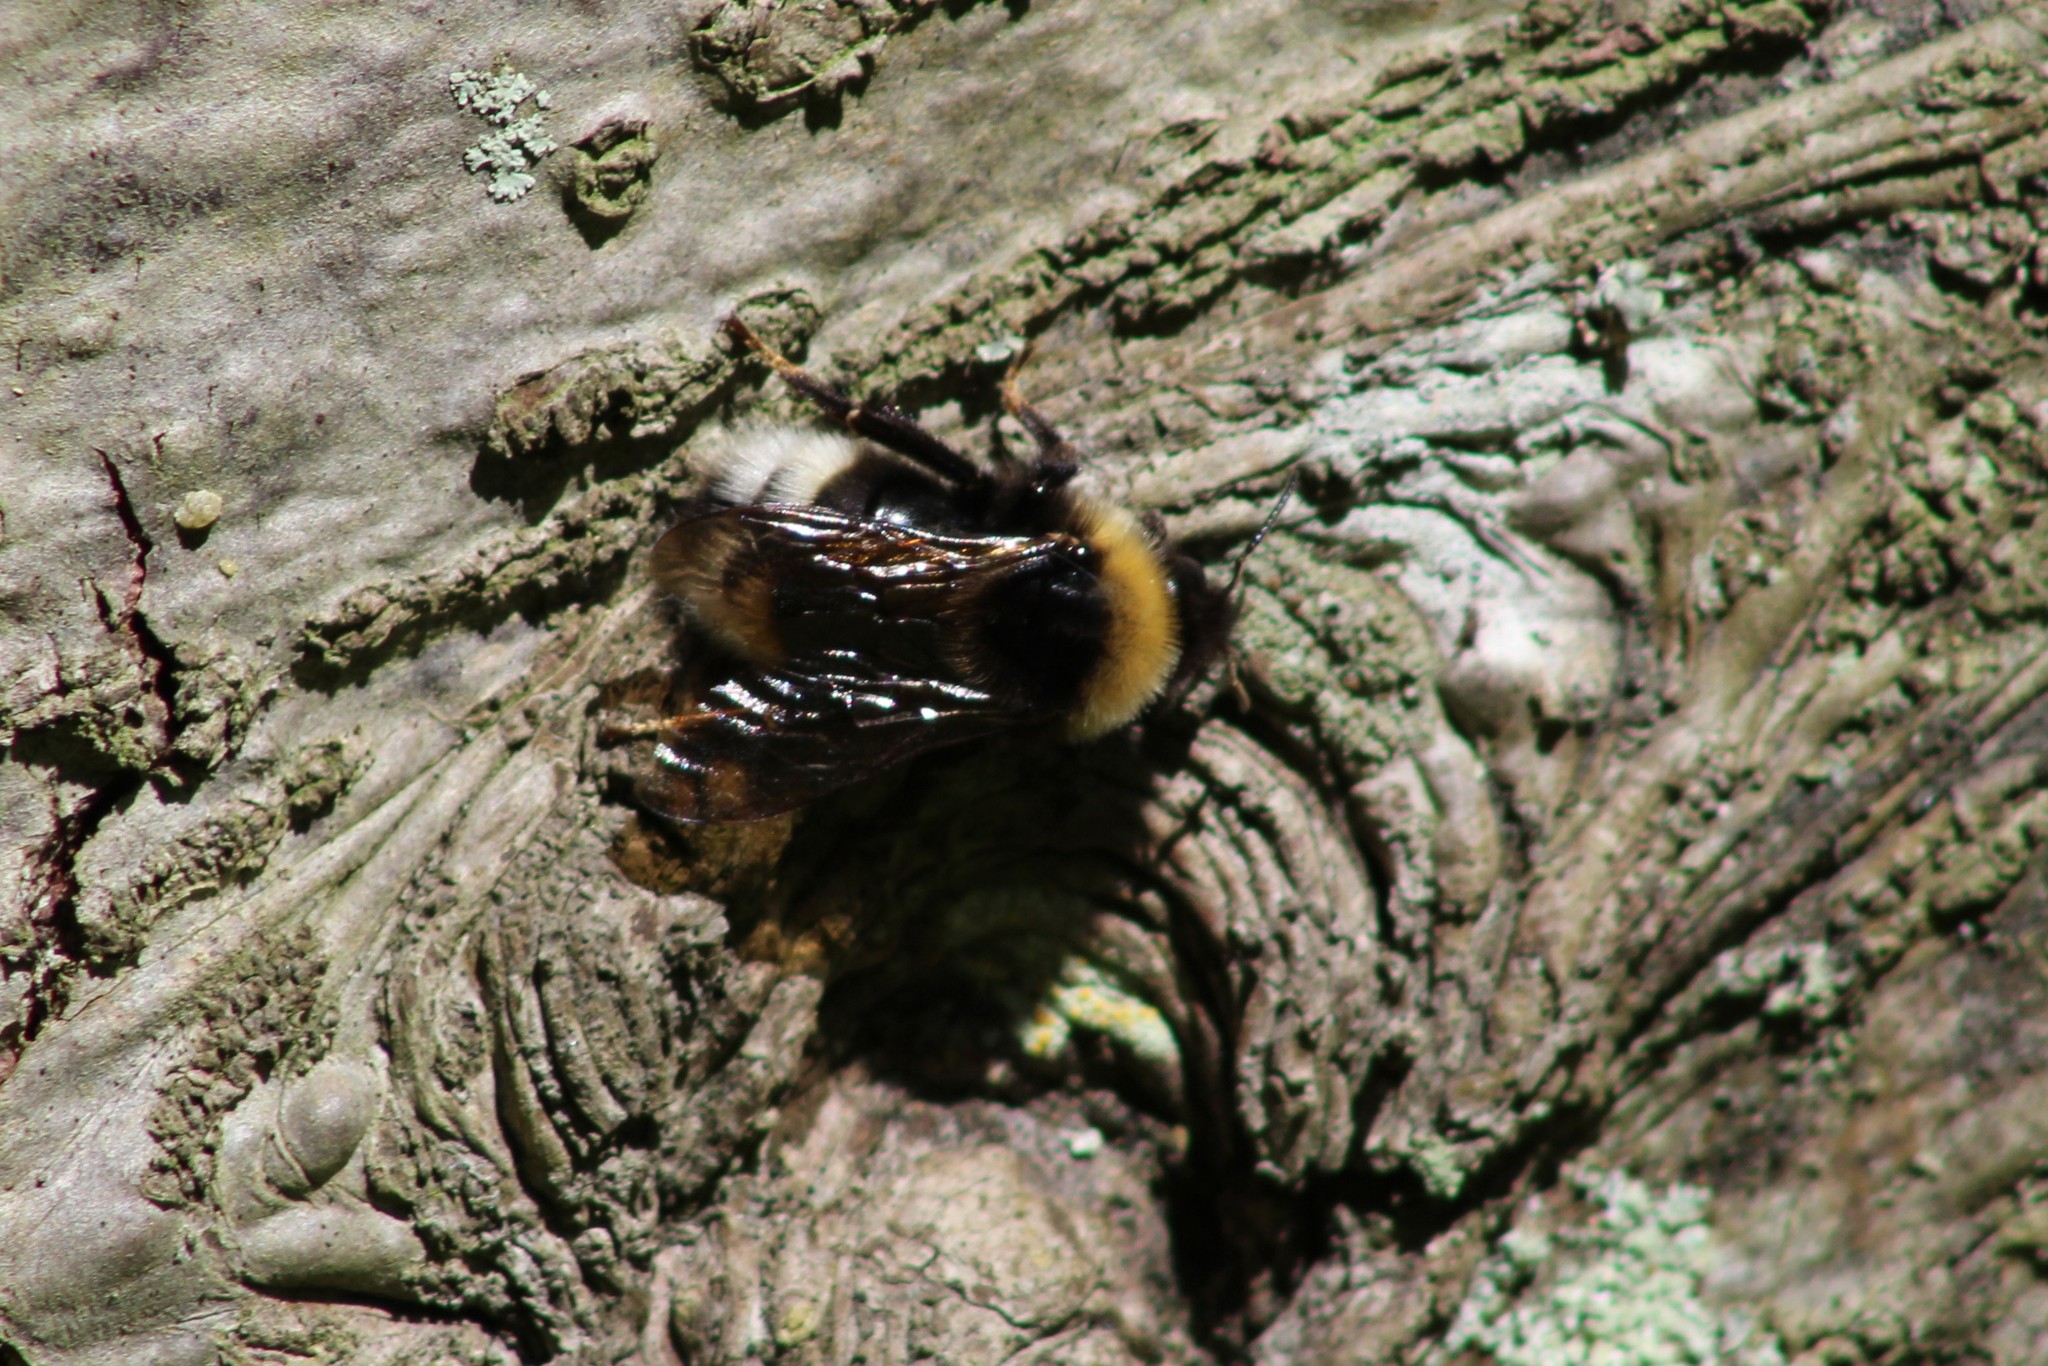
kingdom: Animalia
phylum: Arthropoda
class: Insecta
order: Hymenoptera
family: Apidae
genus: Bombus
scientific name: Bombus bohemicus
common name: Gypsy cuckoo bee
